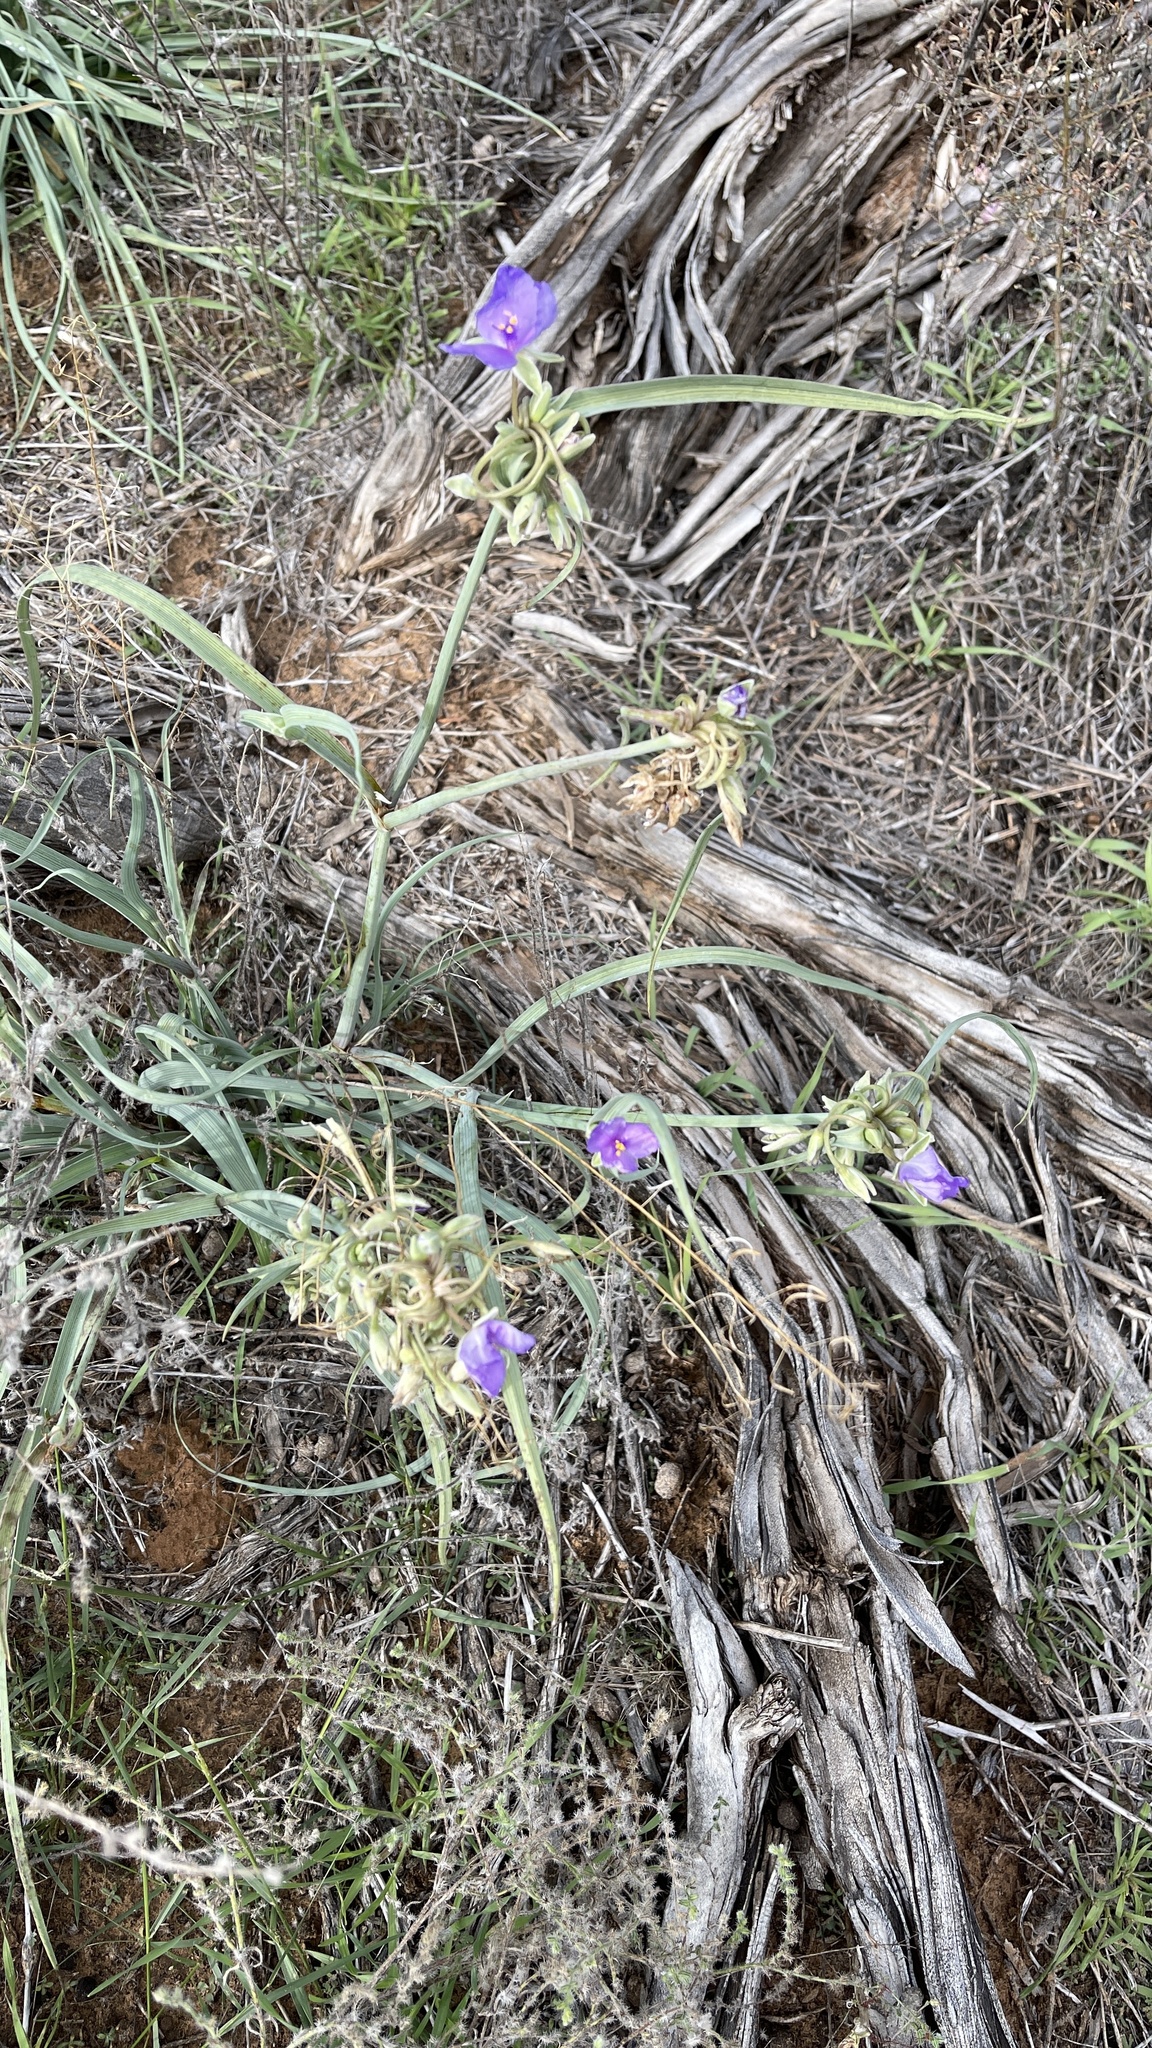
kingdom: Plantae
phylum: Tracheophyta
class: Liliopsida
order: Commelinales
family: Commelinaceae
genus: Tradescantia
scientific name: Tradescantia occidentalis
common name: Prairie spiderwort
